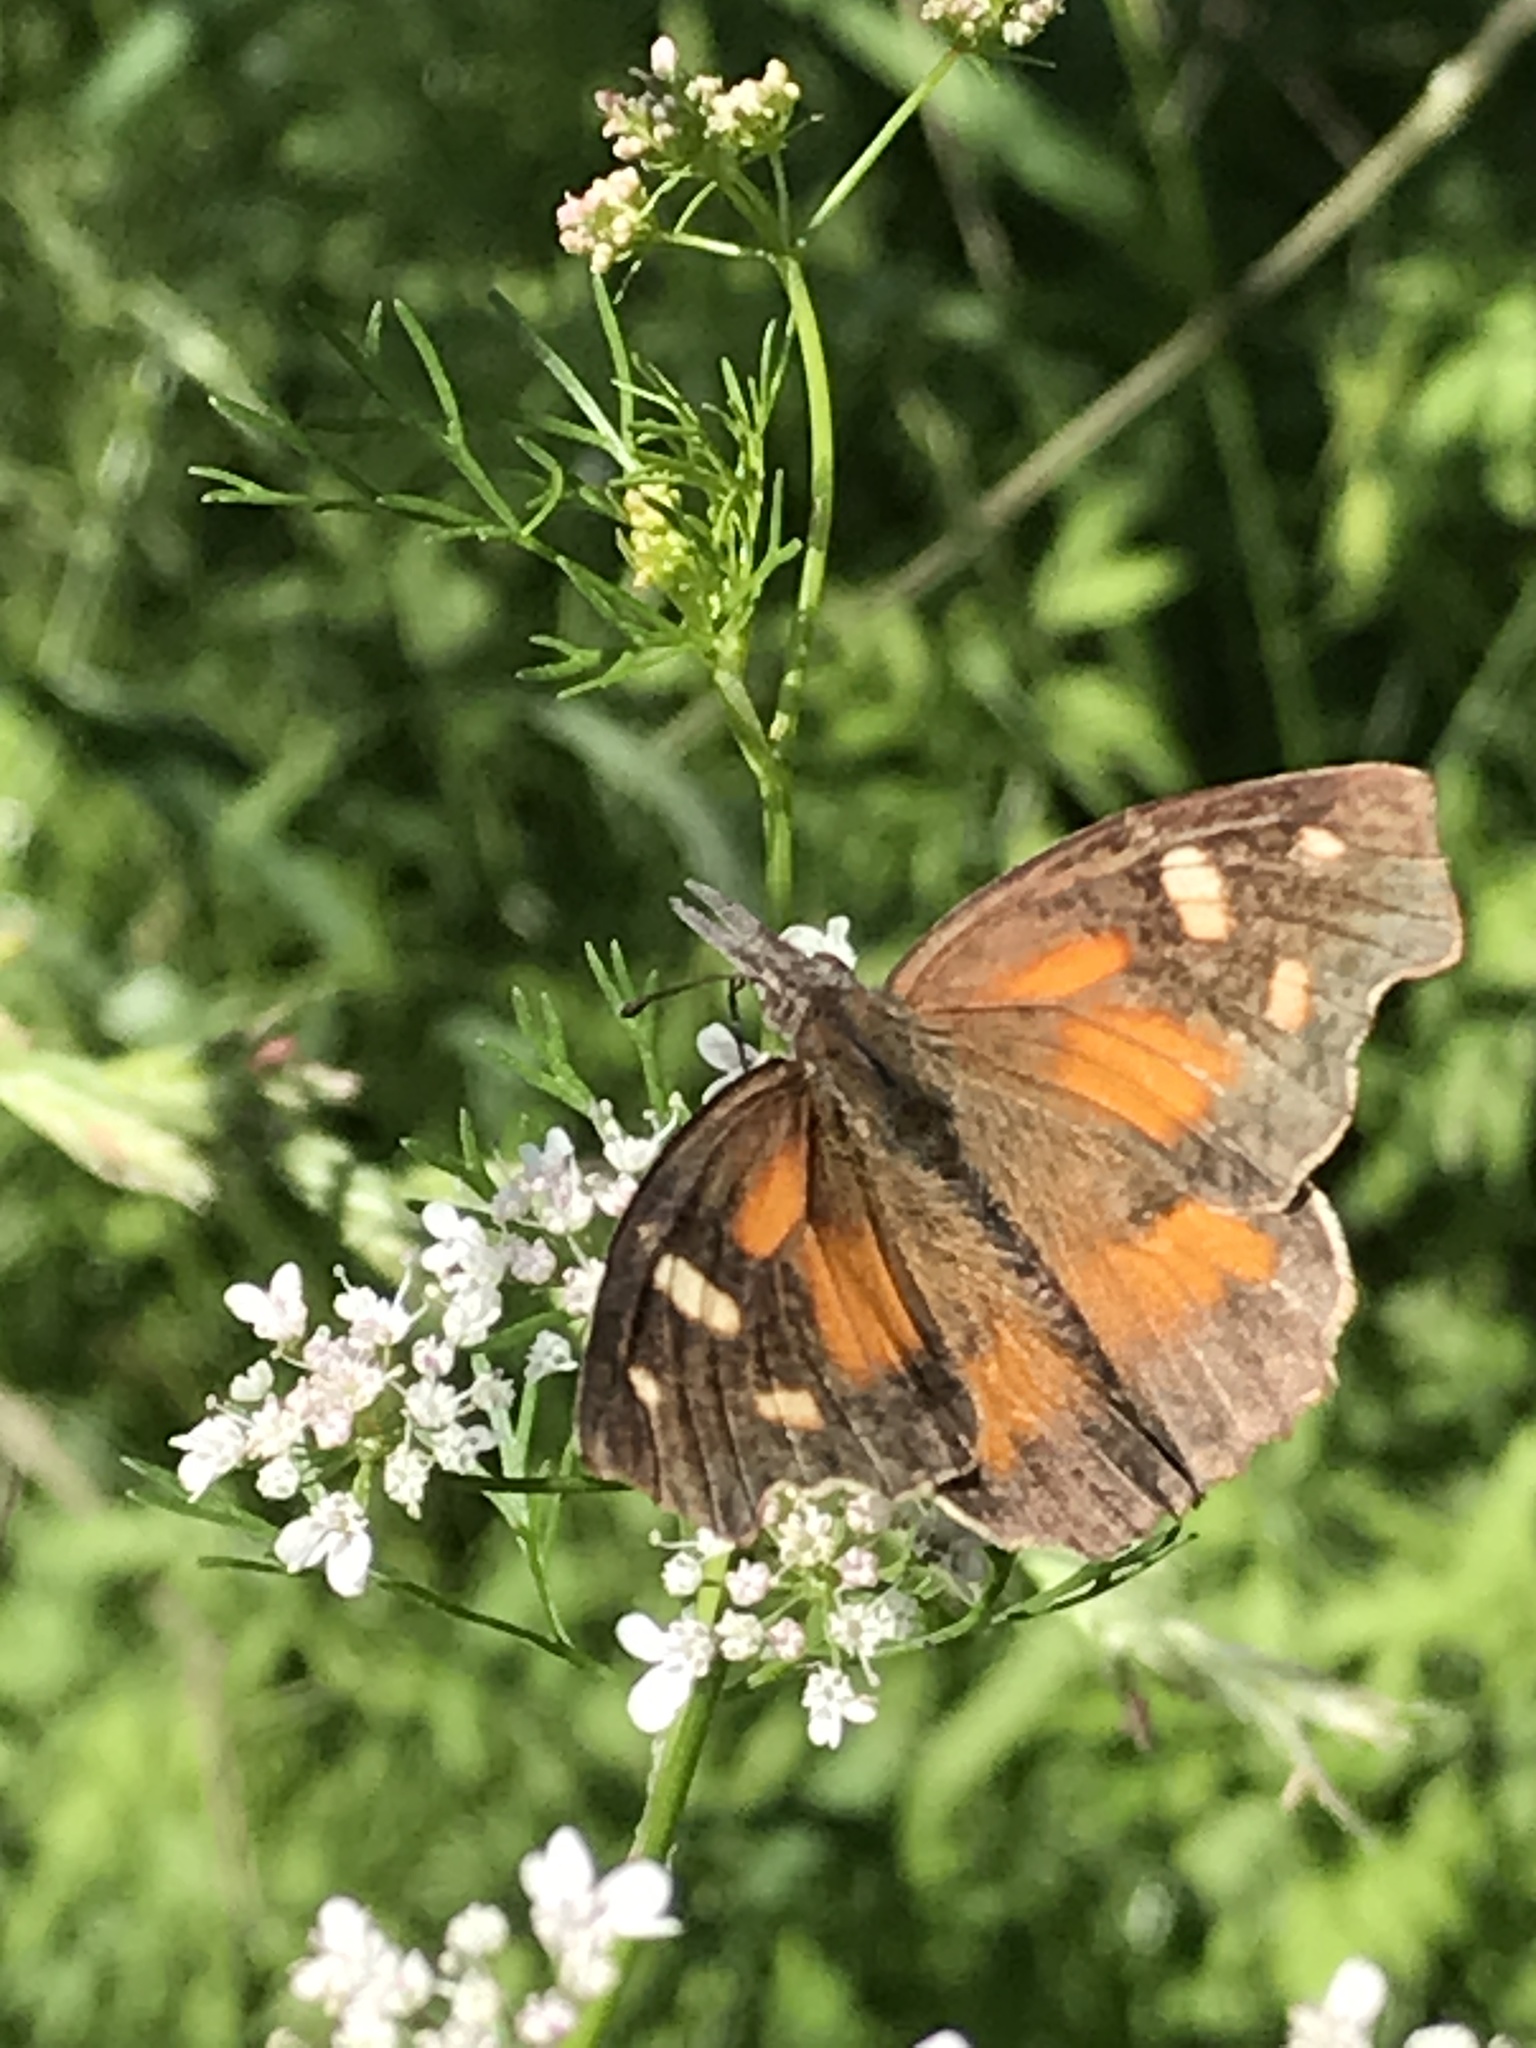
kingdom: Animalia
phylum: Arthropoda
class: Insecta
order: Lepidoptera
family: Nymphalidae
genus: Libytheana
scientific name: Libytheana carinenta
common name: American snout
